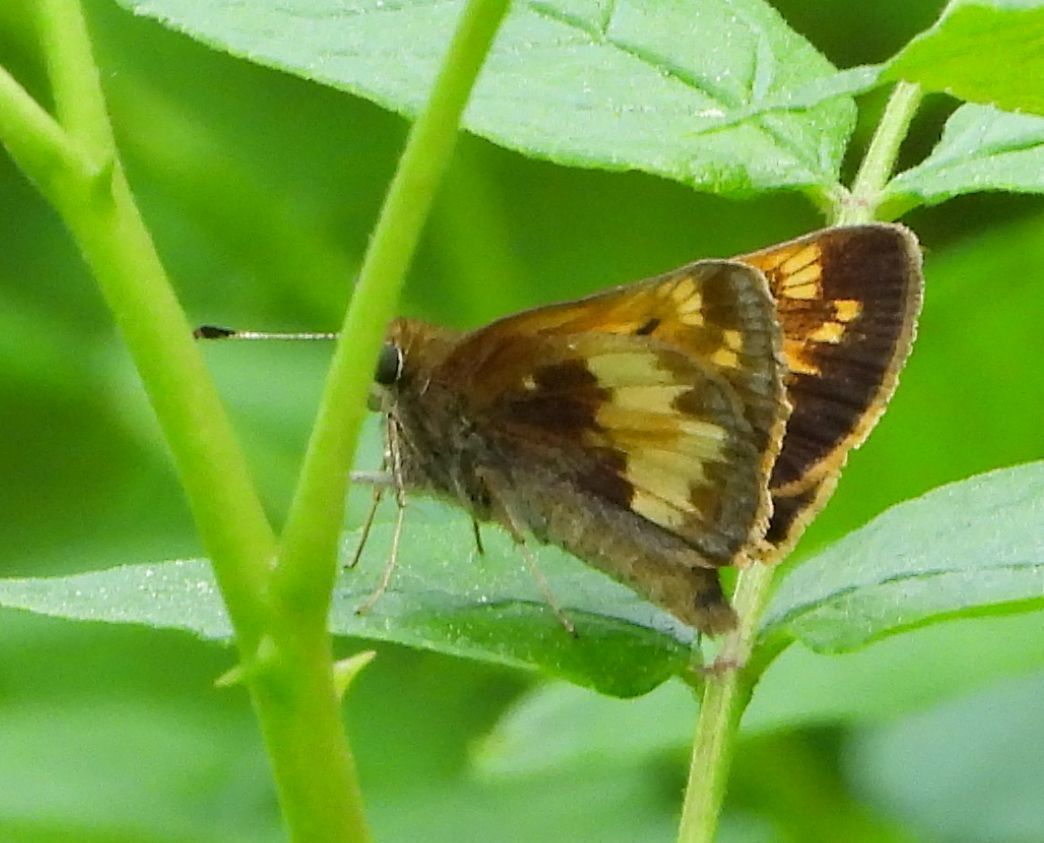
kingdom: Animalia
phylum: Arthropoda
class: Insecta
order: Lepidoptera
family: Hesperiidae
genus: Lon
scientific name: Lon hobomok
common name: Hobomok skipper
